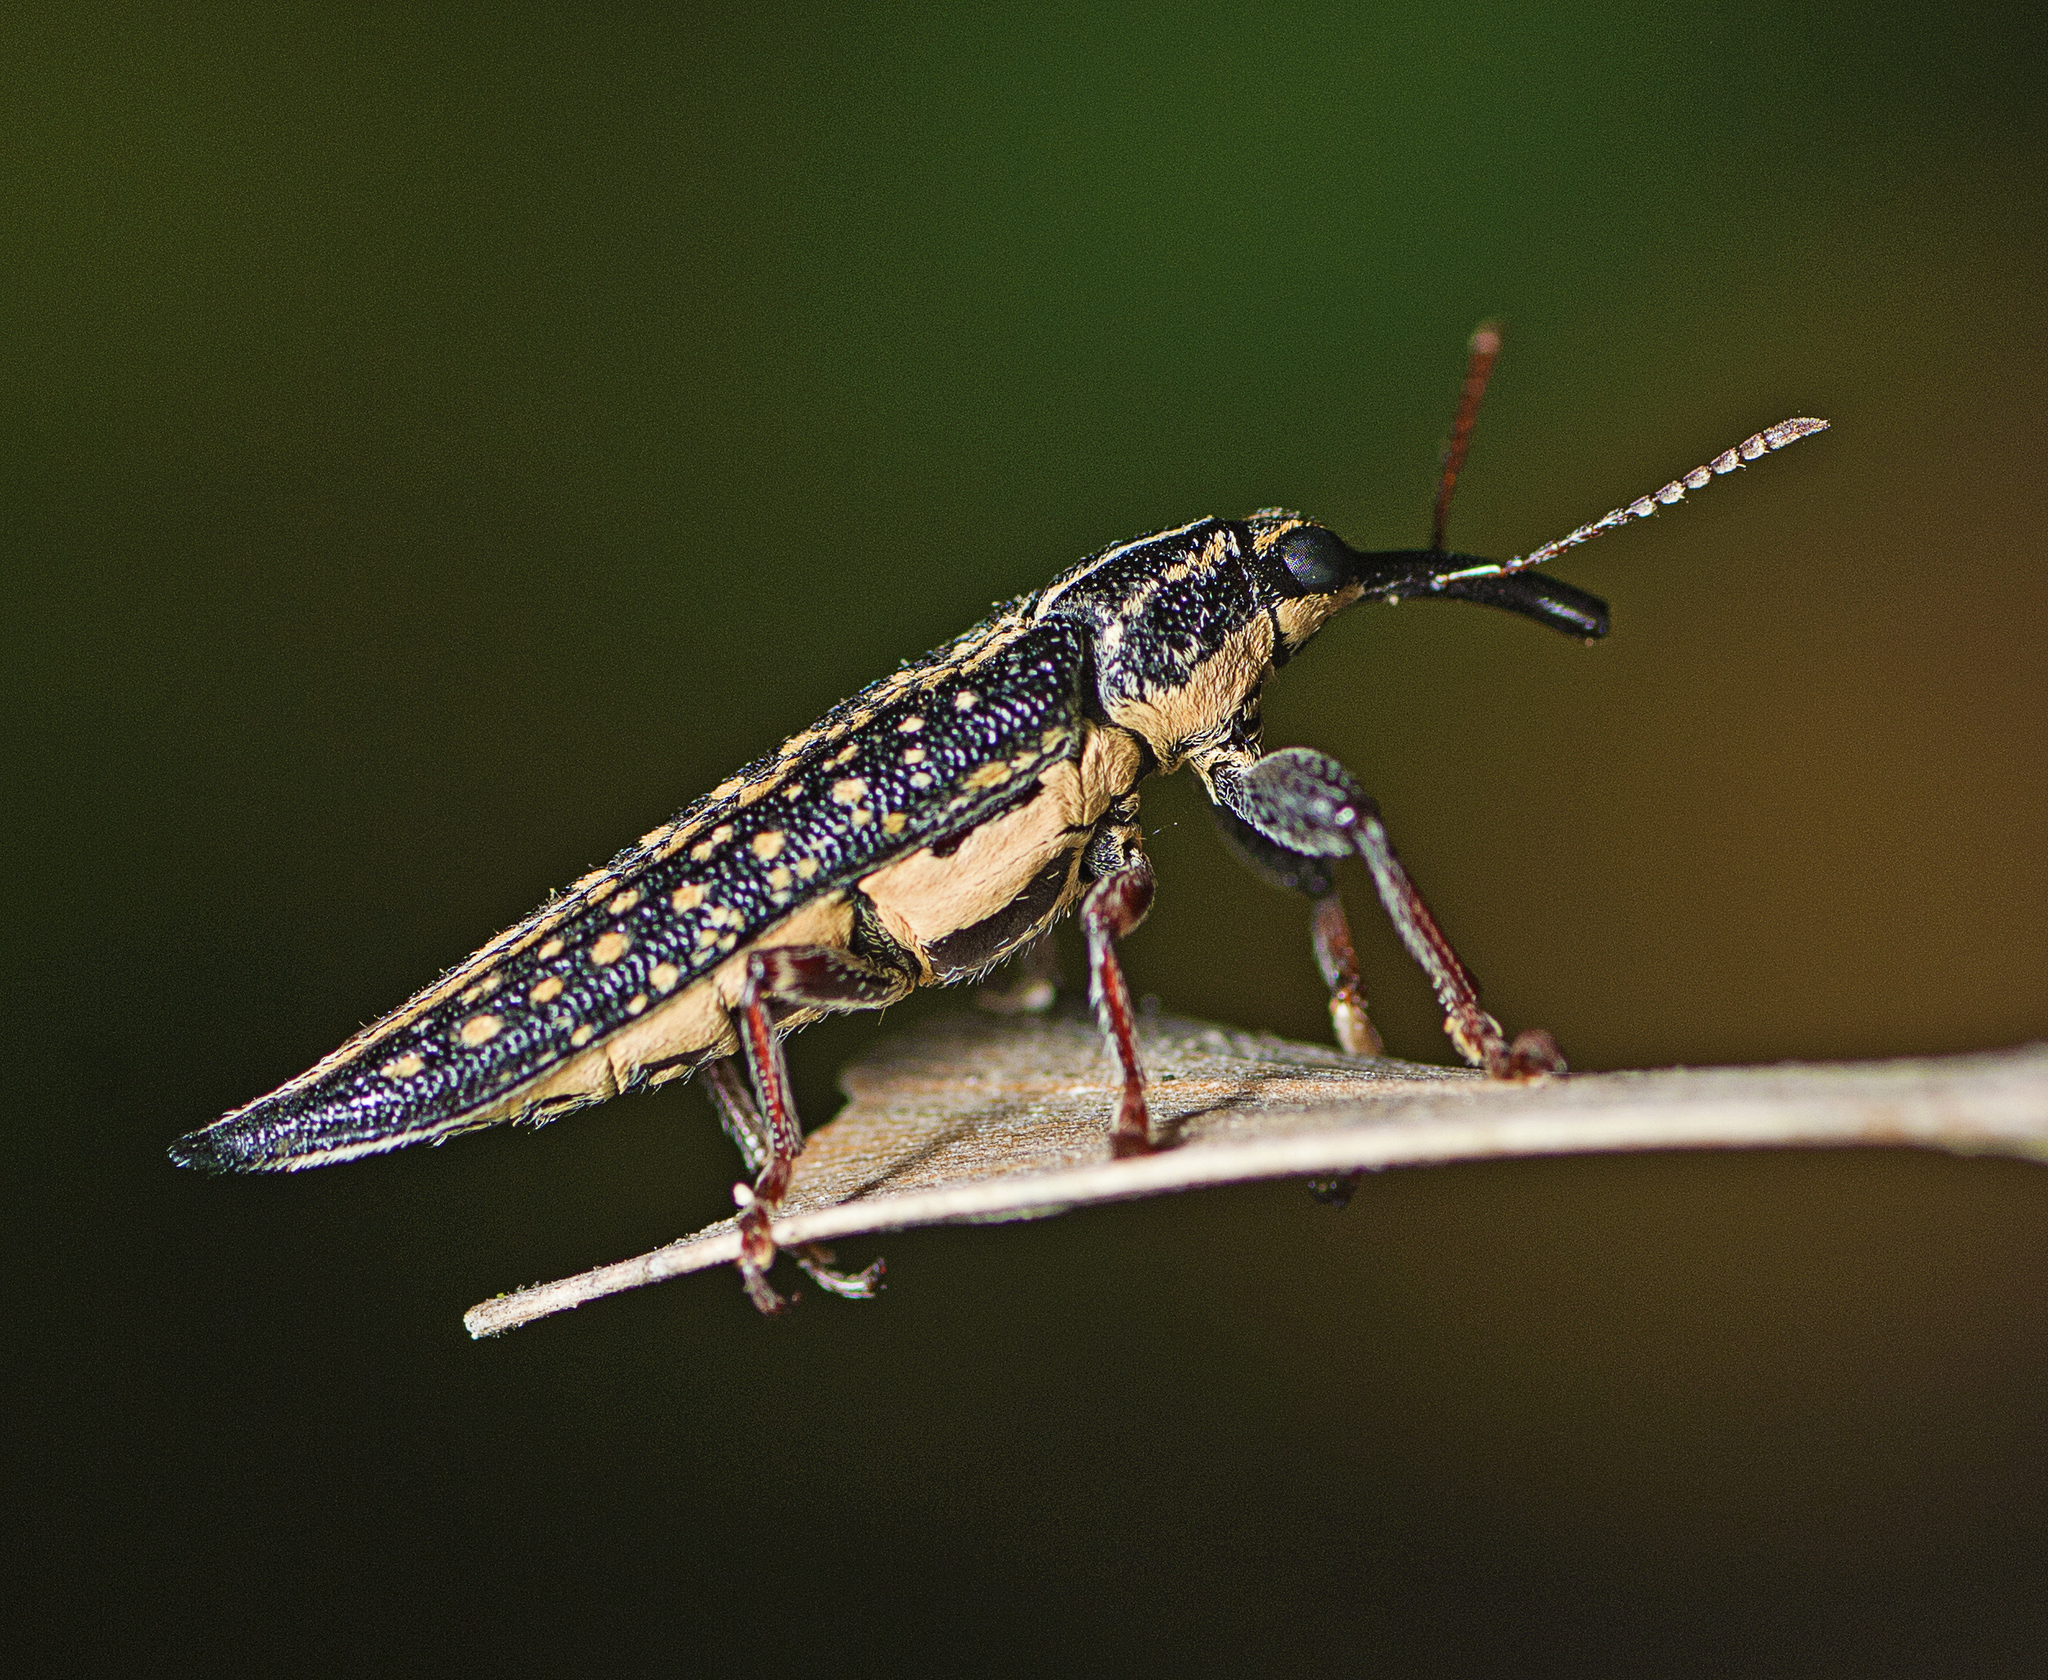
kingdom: Animalia
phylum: Arthropoda
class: Insecta
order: Coleoptera
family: Belidae
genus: Rhinotia
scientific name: Rhinotia lineata
